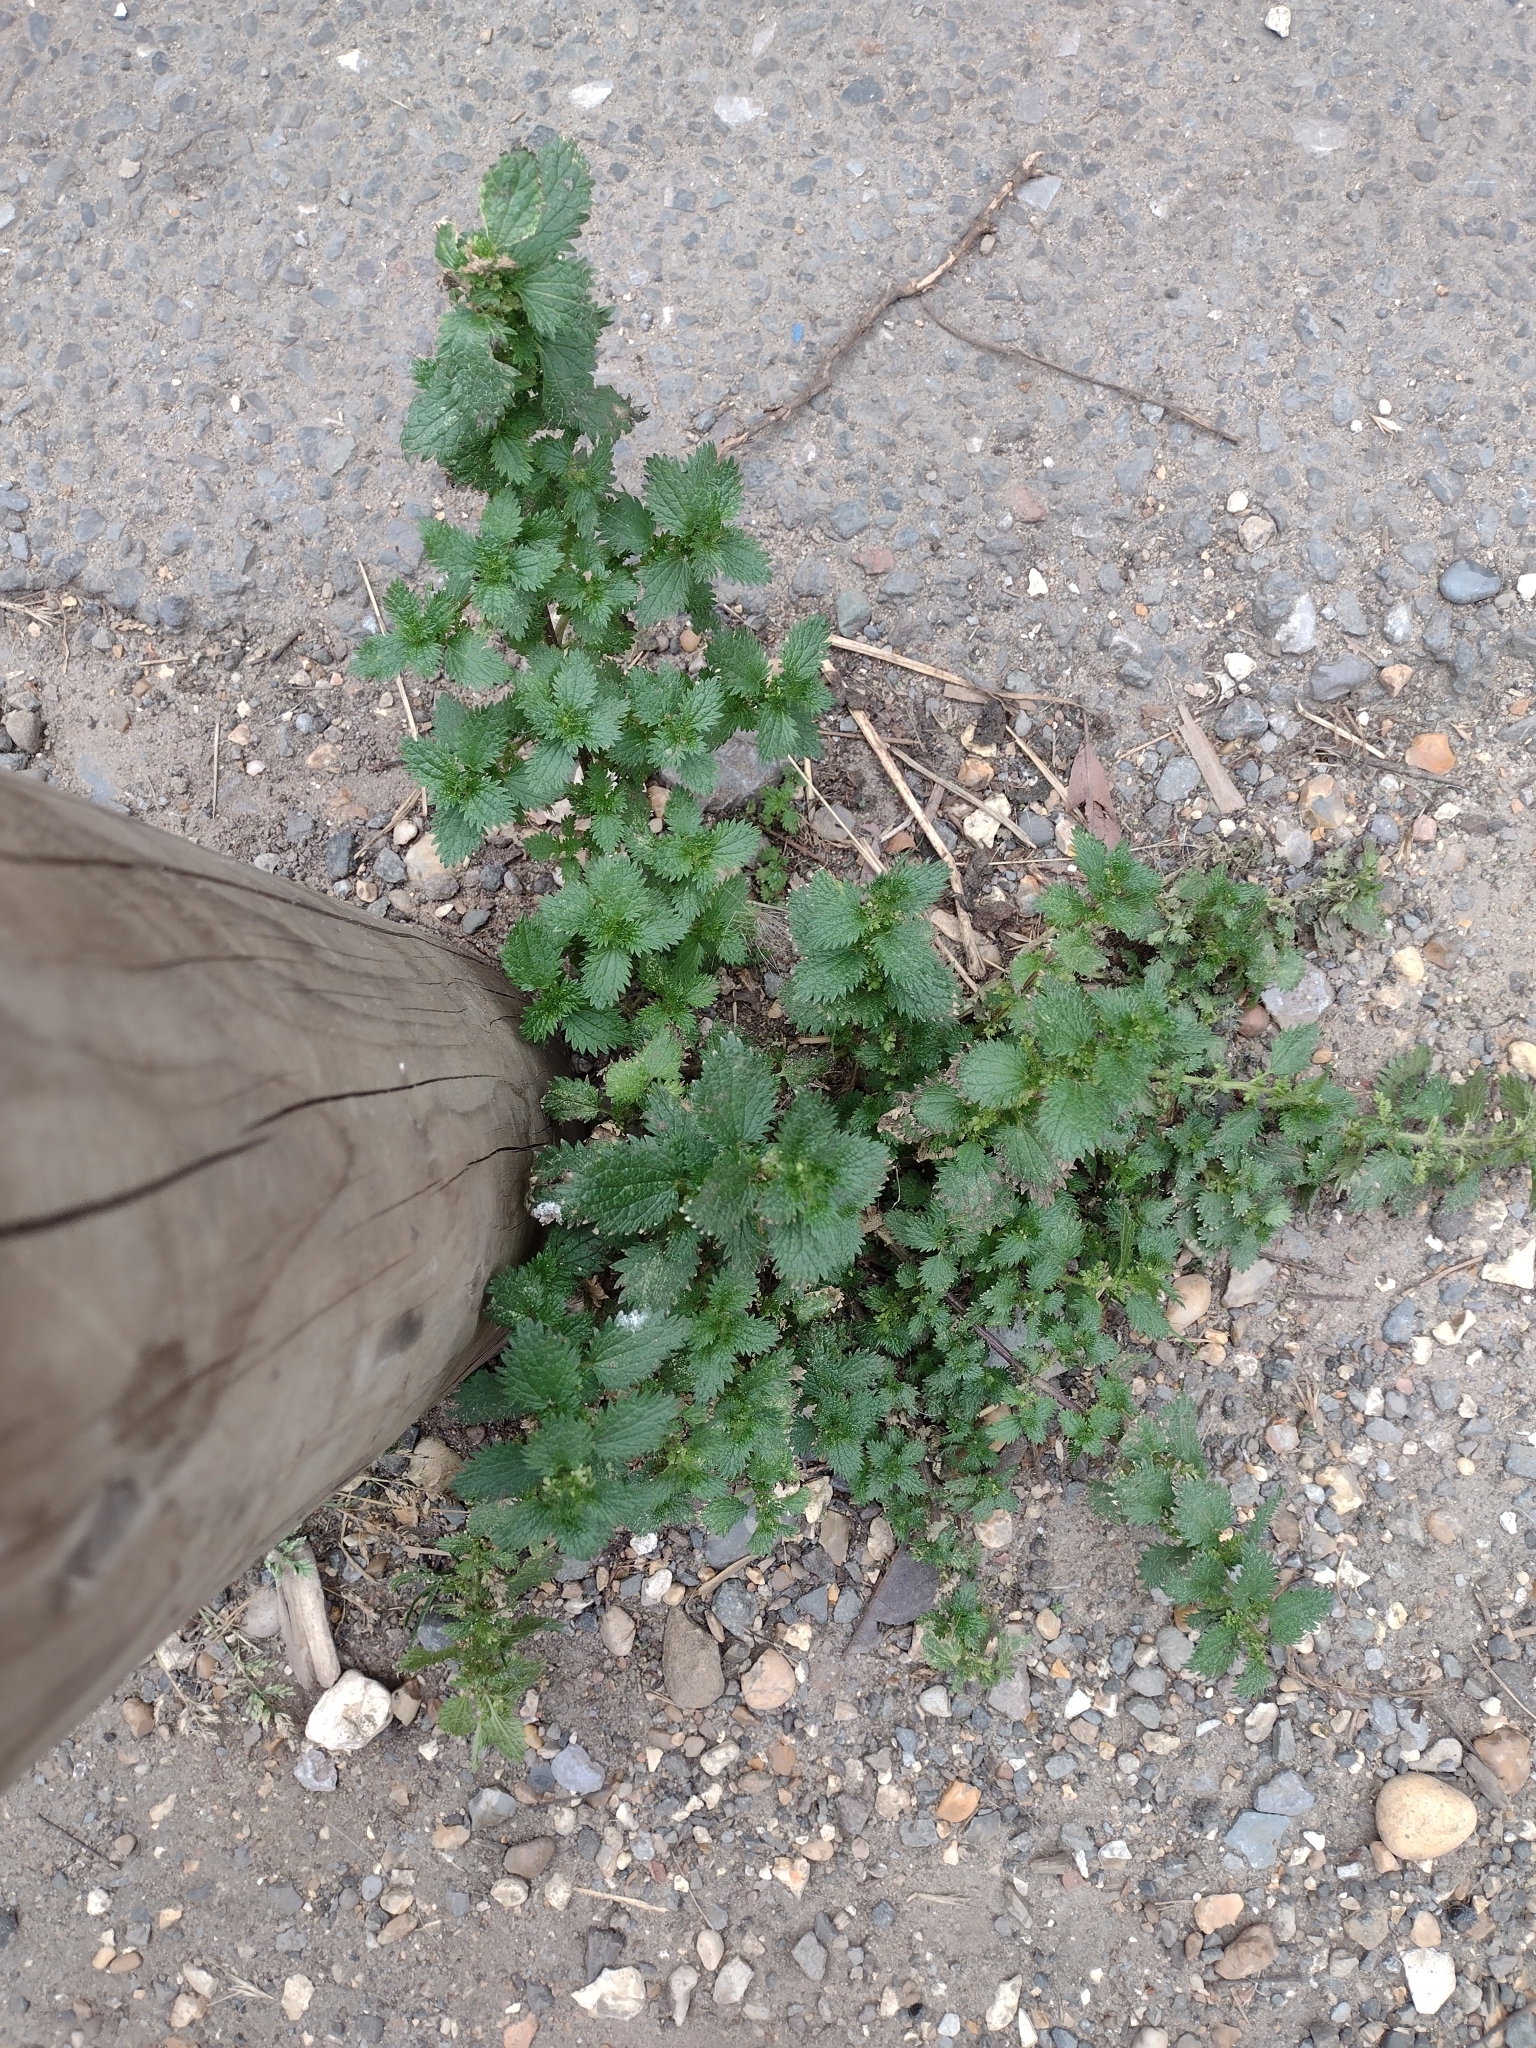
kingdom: Plantae
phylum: Tracheophyta
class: Magnoliopsida
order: Rosales
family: Urticaceae
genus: Urtica
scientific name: Urtica urens
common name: Dwarf nettle
